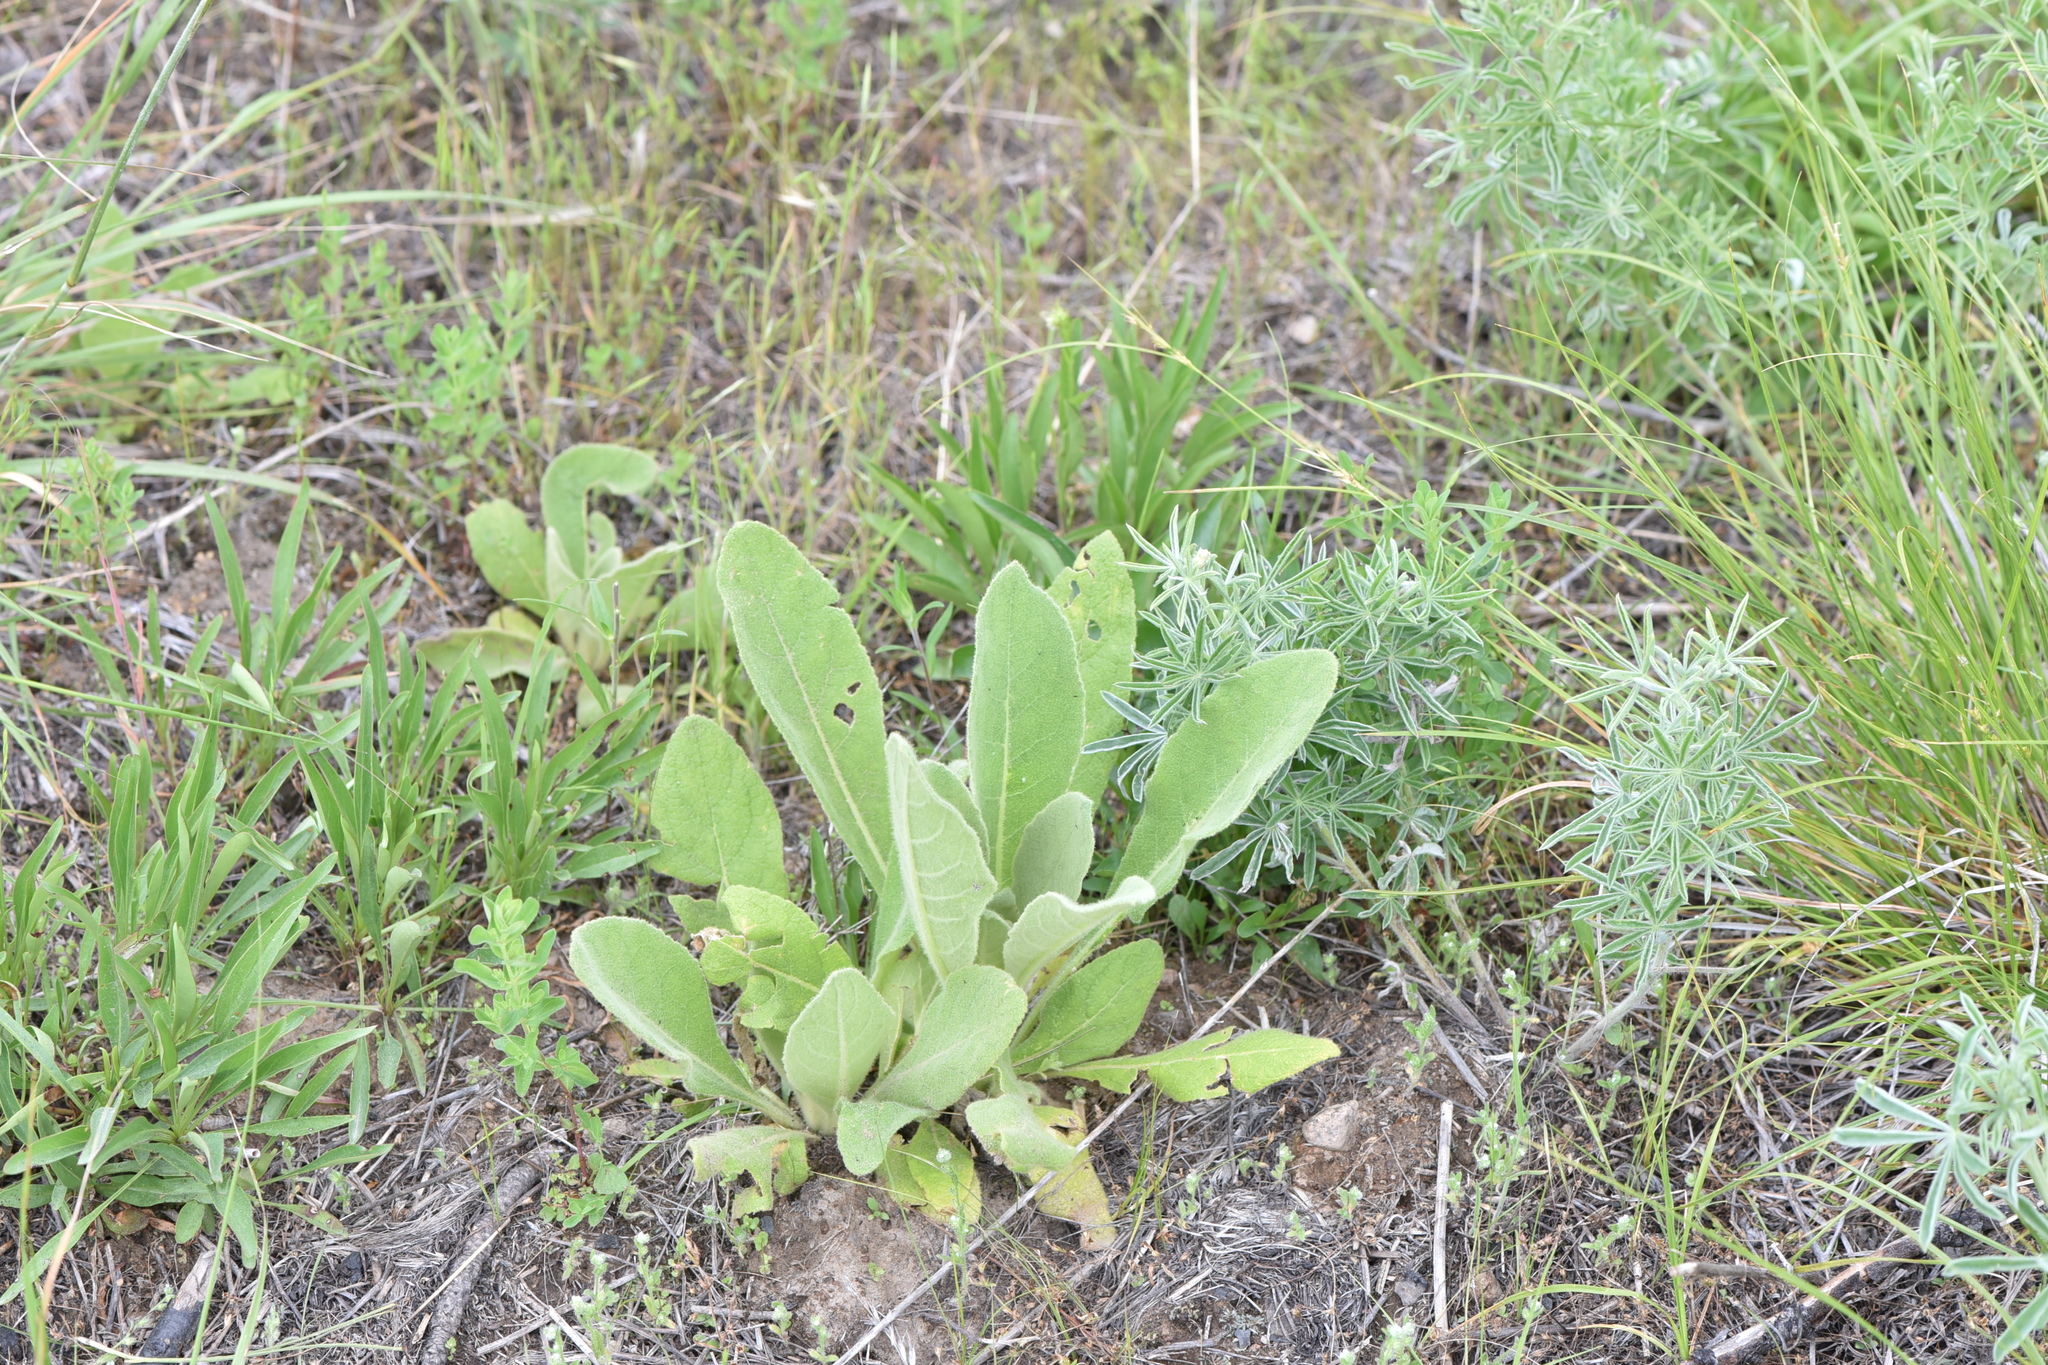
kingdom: Plantae
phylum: Tracheophyta
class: Magnoliopsida
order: Lamiales
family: Scrophulariaceae
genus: Verbascum
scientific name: Verbascum thapsus
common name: Common mullein
